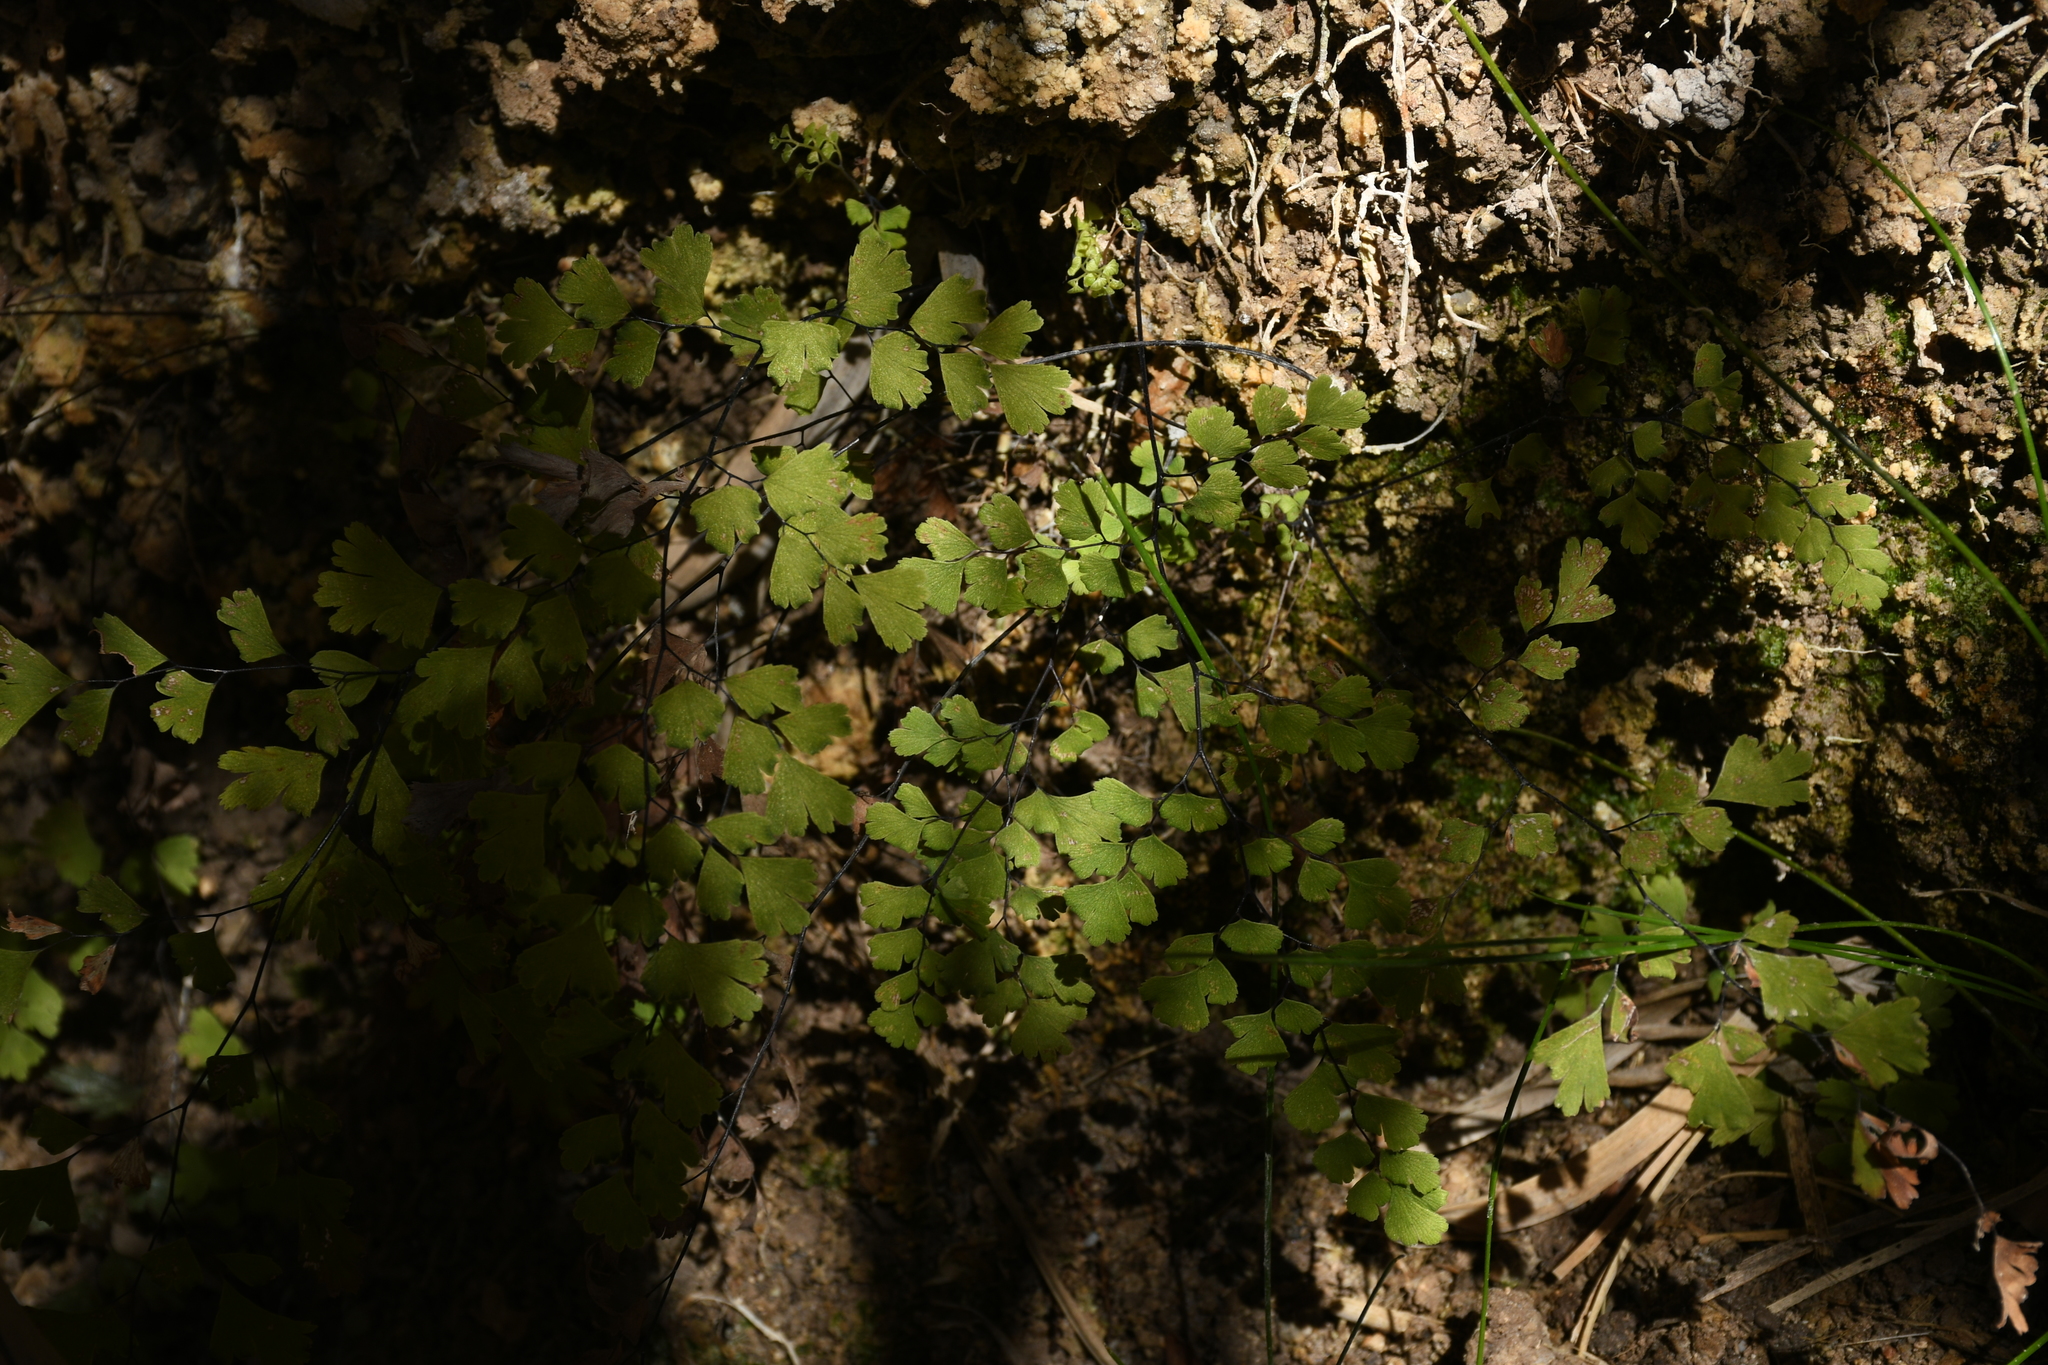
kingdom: Plantae
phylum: Tracheophyta
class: Polypodiopsida
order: Polypodiales
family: Pteridaceae
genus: Adiantum
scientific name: Adiantum capillus-veneris
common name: Maidenhair fern
